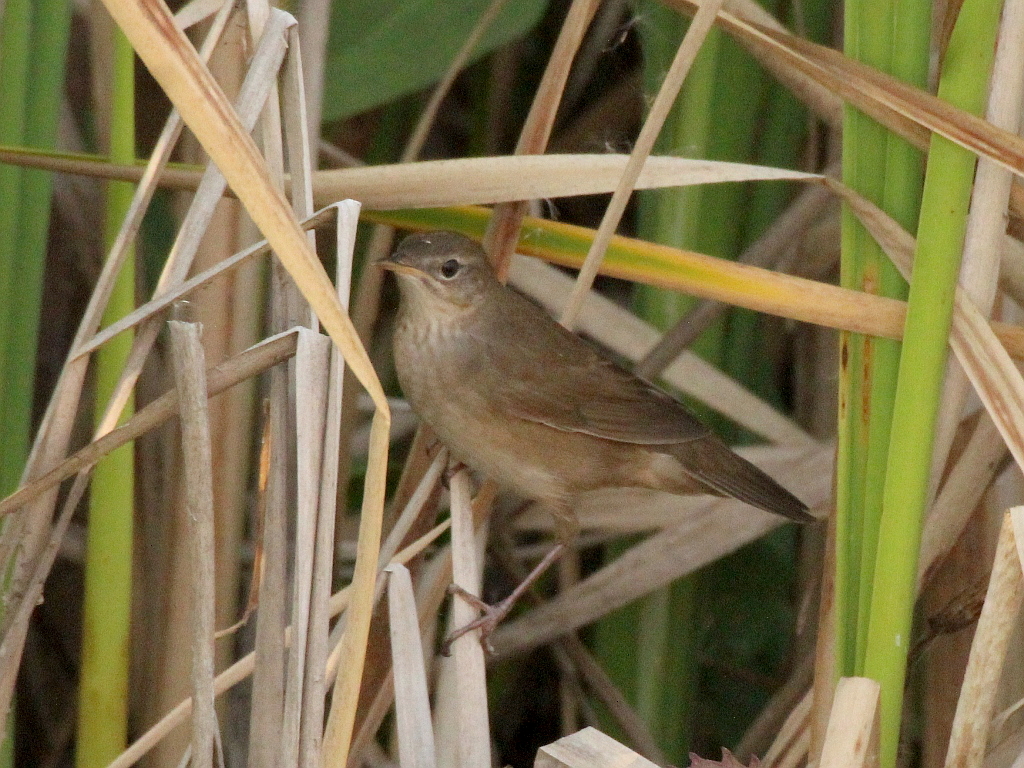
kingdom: Animalia
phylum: Chordata
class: Aves
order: Passeriformes
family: Locustellidae
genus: Locustella
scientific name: Locustella luscinioides
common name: Savi's warbler
